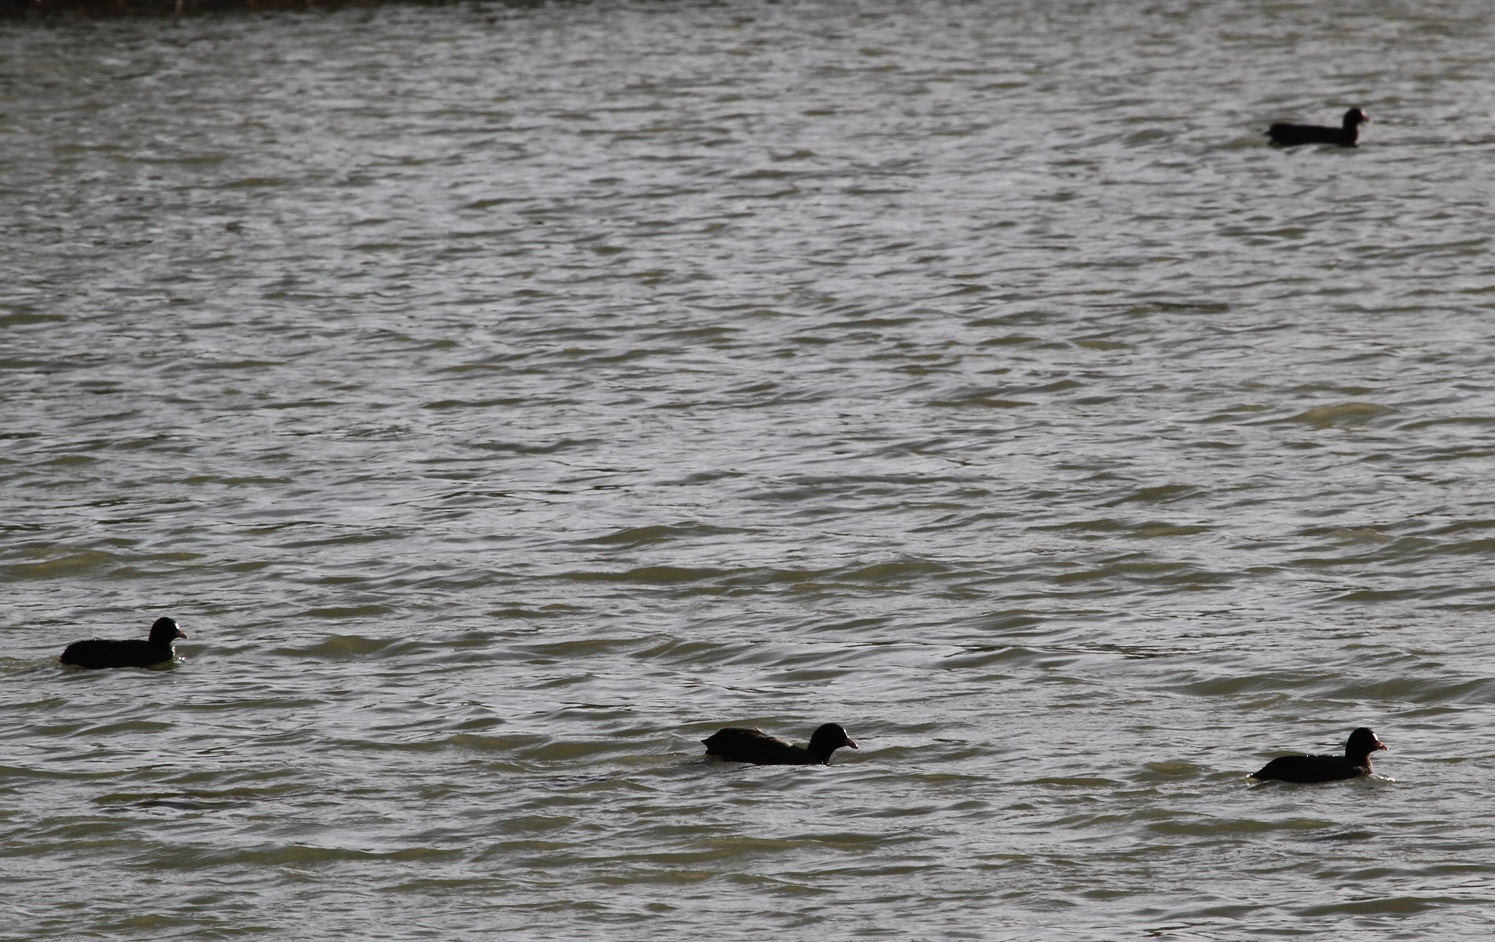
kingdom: Animalia
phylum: Chordata
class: Aves
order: Gruiformes
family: Rallidae
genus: Fulica
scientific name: Fulica atra
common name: Eurasian coot
